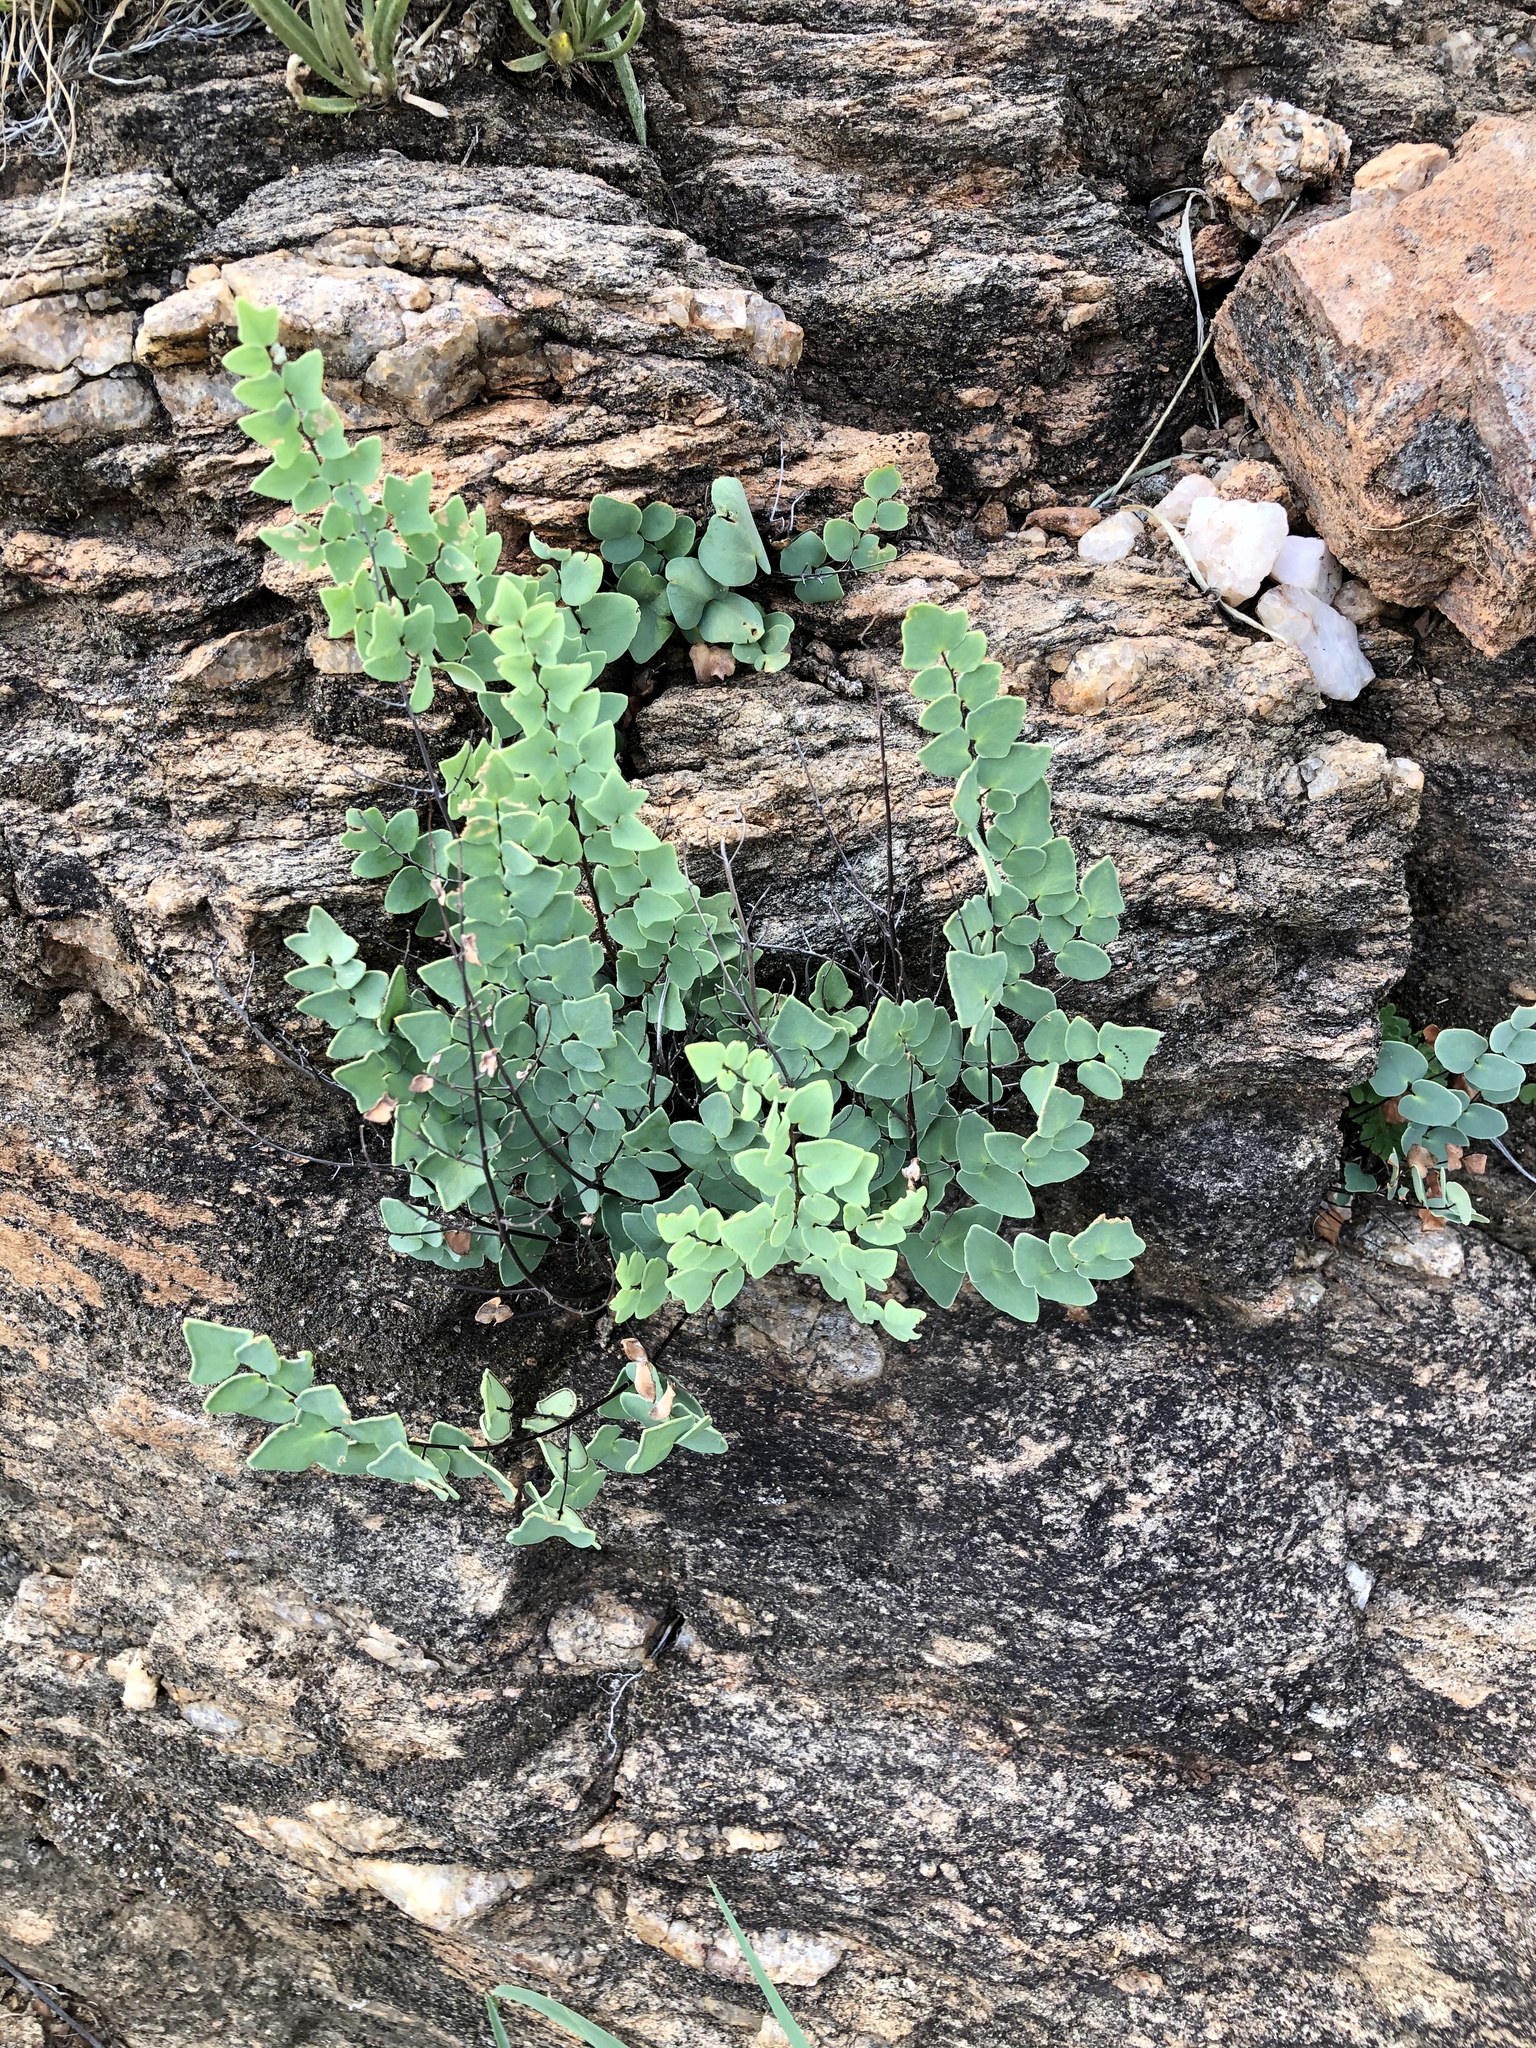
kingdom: Plantae
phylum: Tracheophyta
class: Polypodiopsida
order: Polypodiales
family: Pteridaceae
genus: Pellaea
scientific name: Pellaea calomelanos
